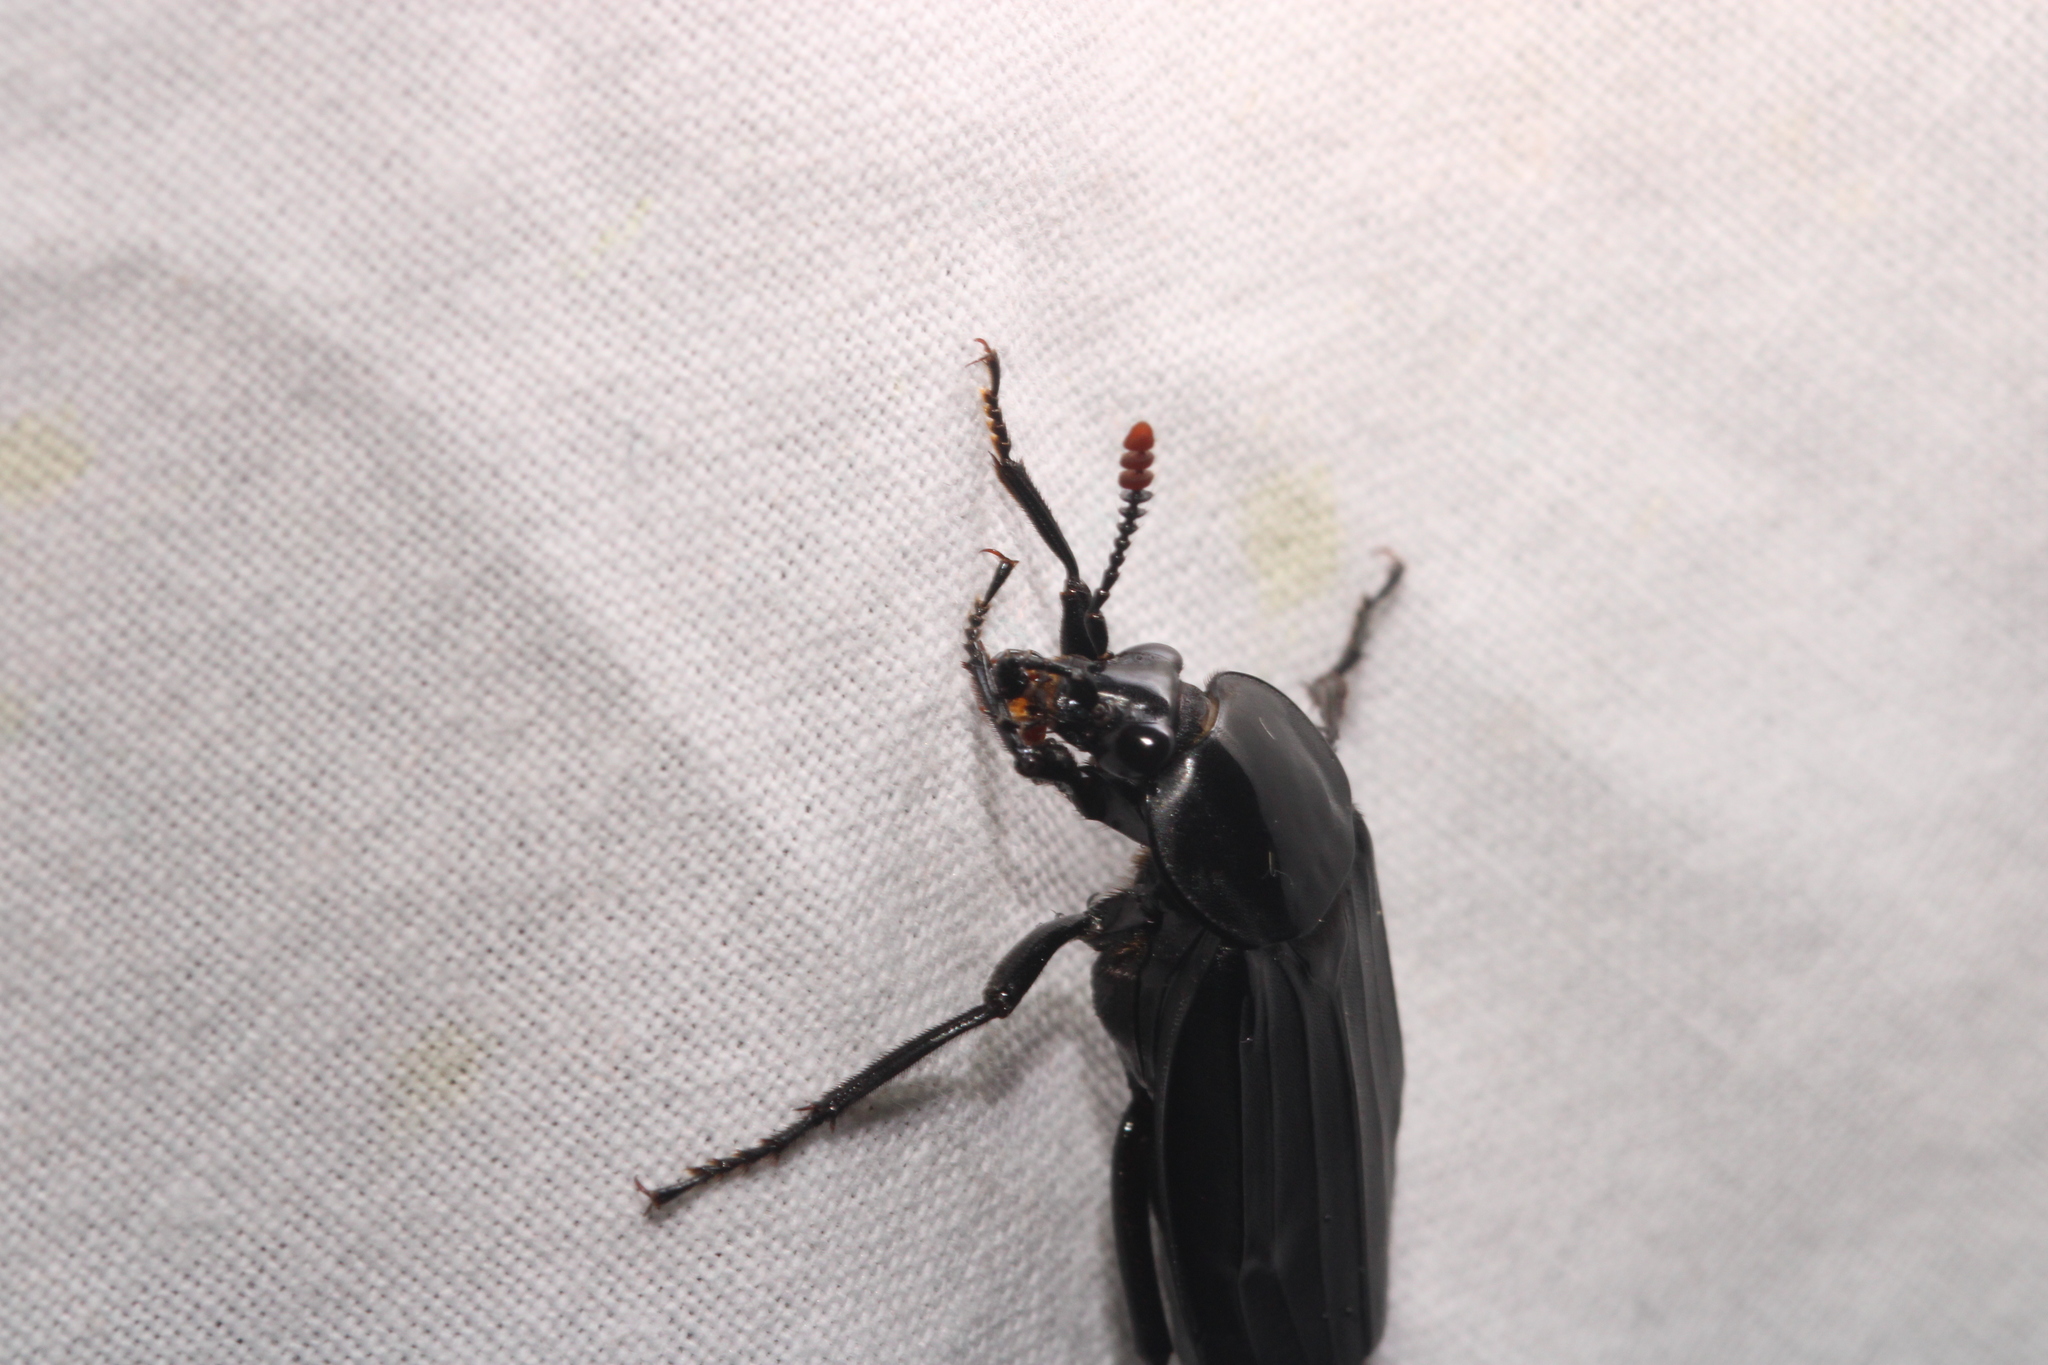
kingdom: Animalia
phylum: Arthropoda
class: Insecta
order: Coleoptera
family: Staphylinidae
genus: Necrodes
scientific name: Necrodes littoralis
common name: Shore sexton beetle
